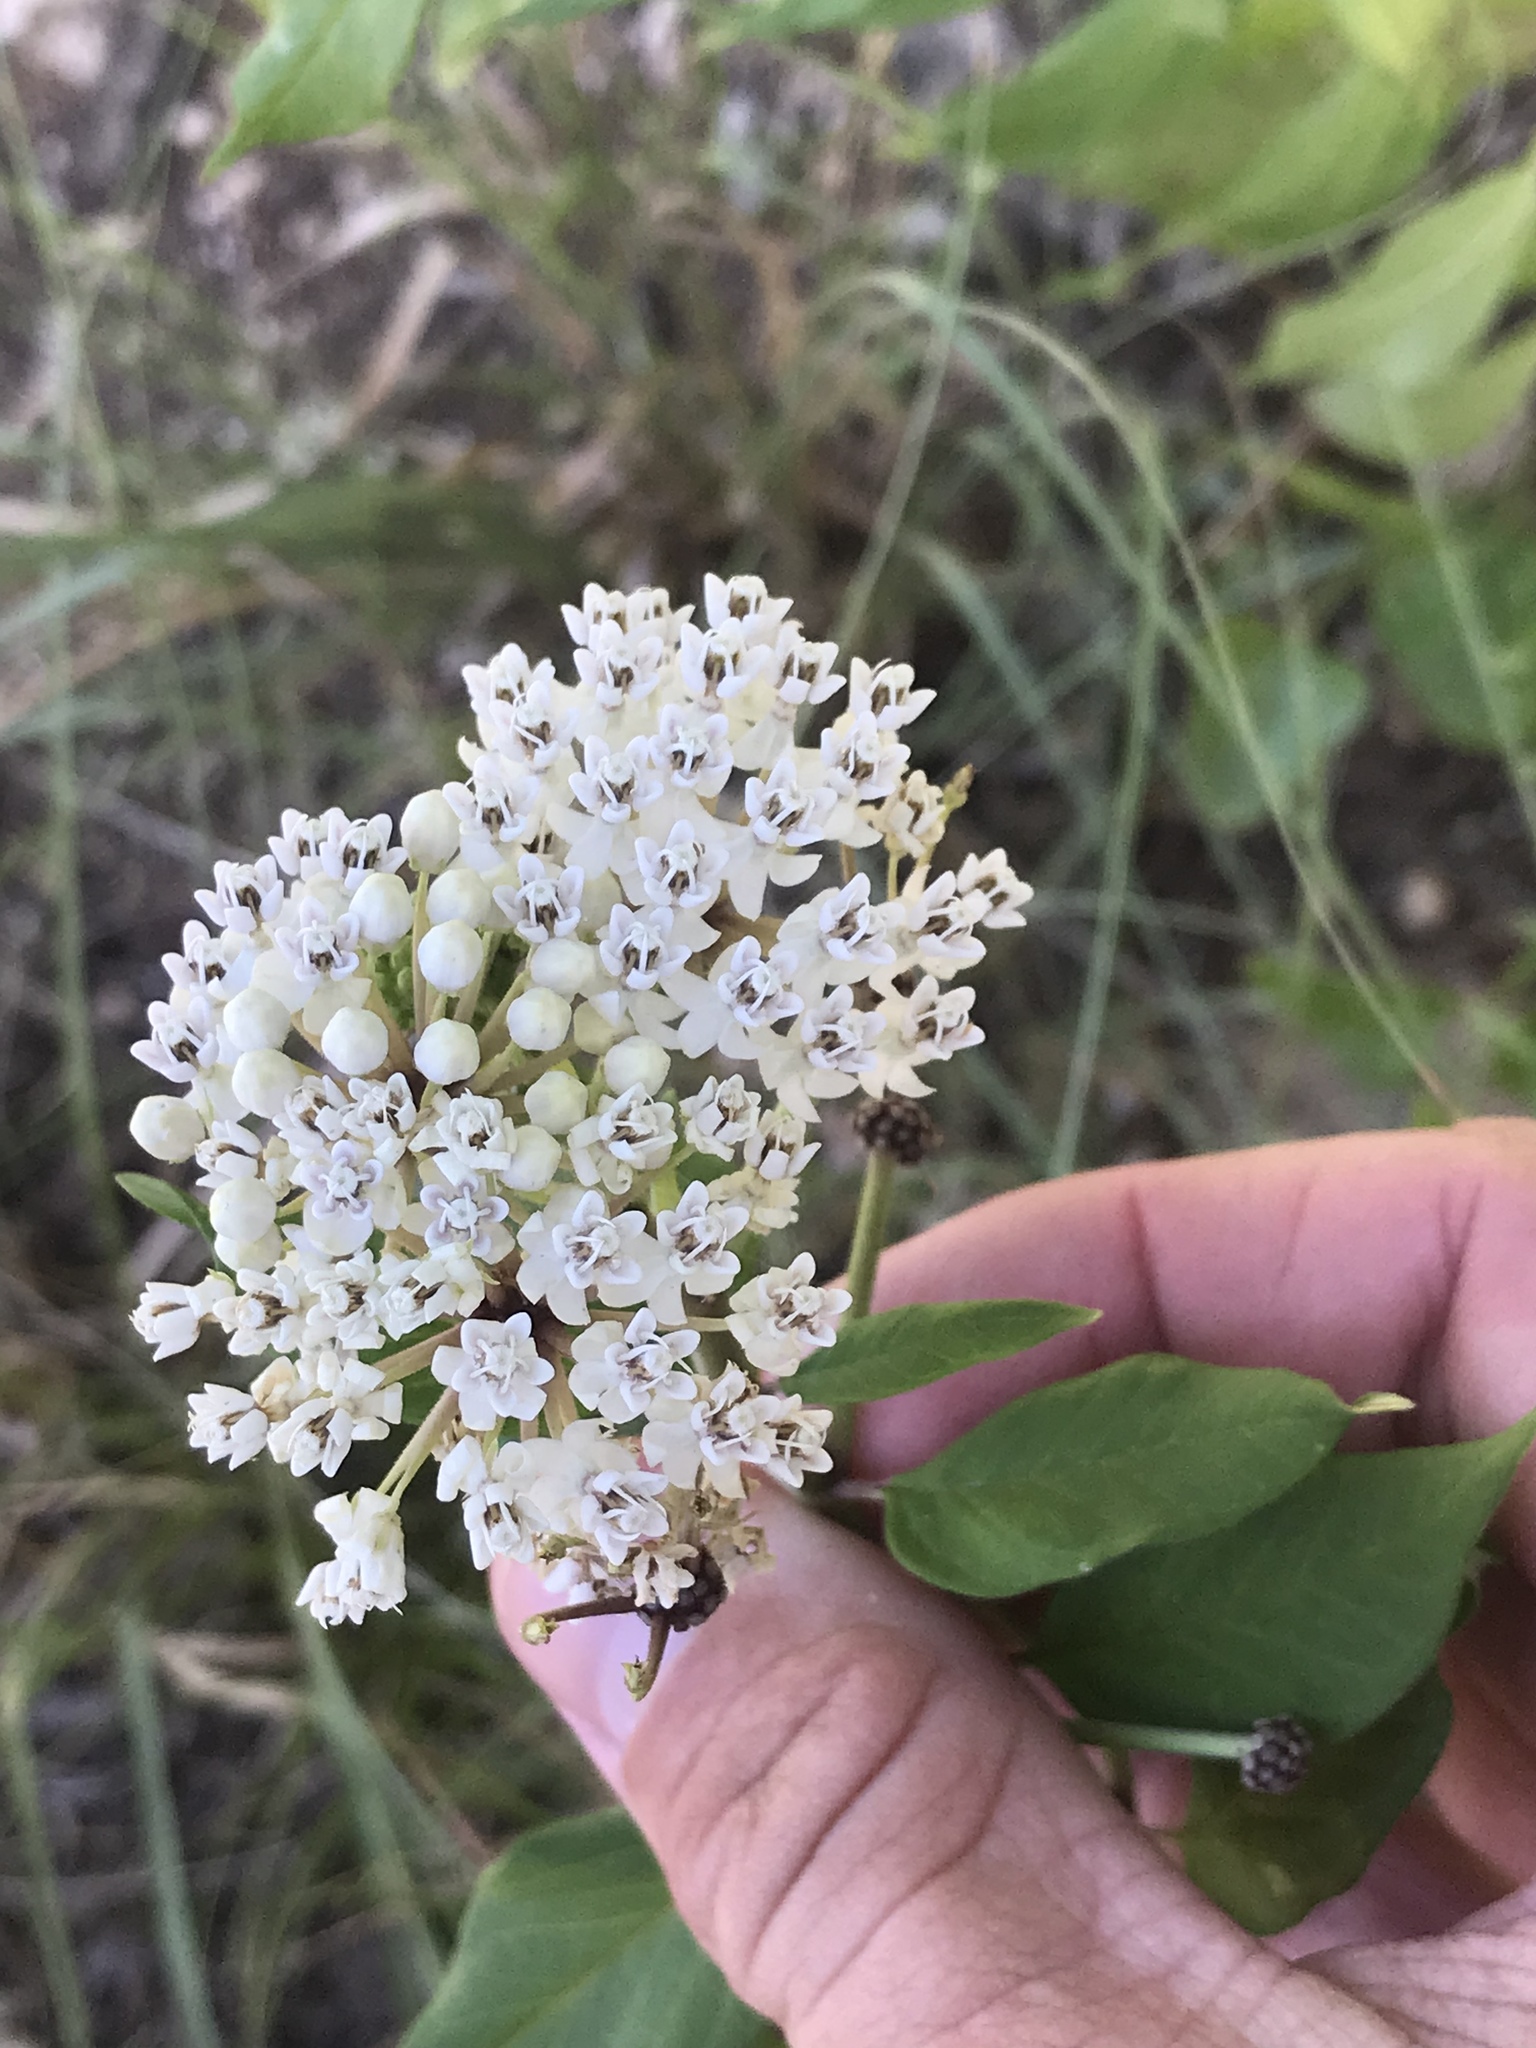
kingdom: Plantae
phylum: Tracheophyta
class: Magnoliopsida
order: Gentianales
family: Apocynaceae
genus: Asclepias
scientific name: Asclepias texana
